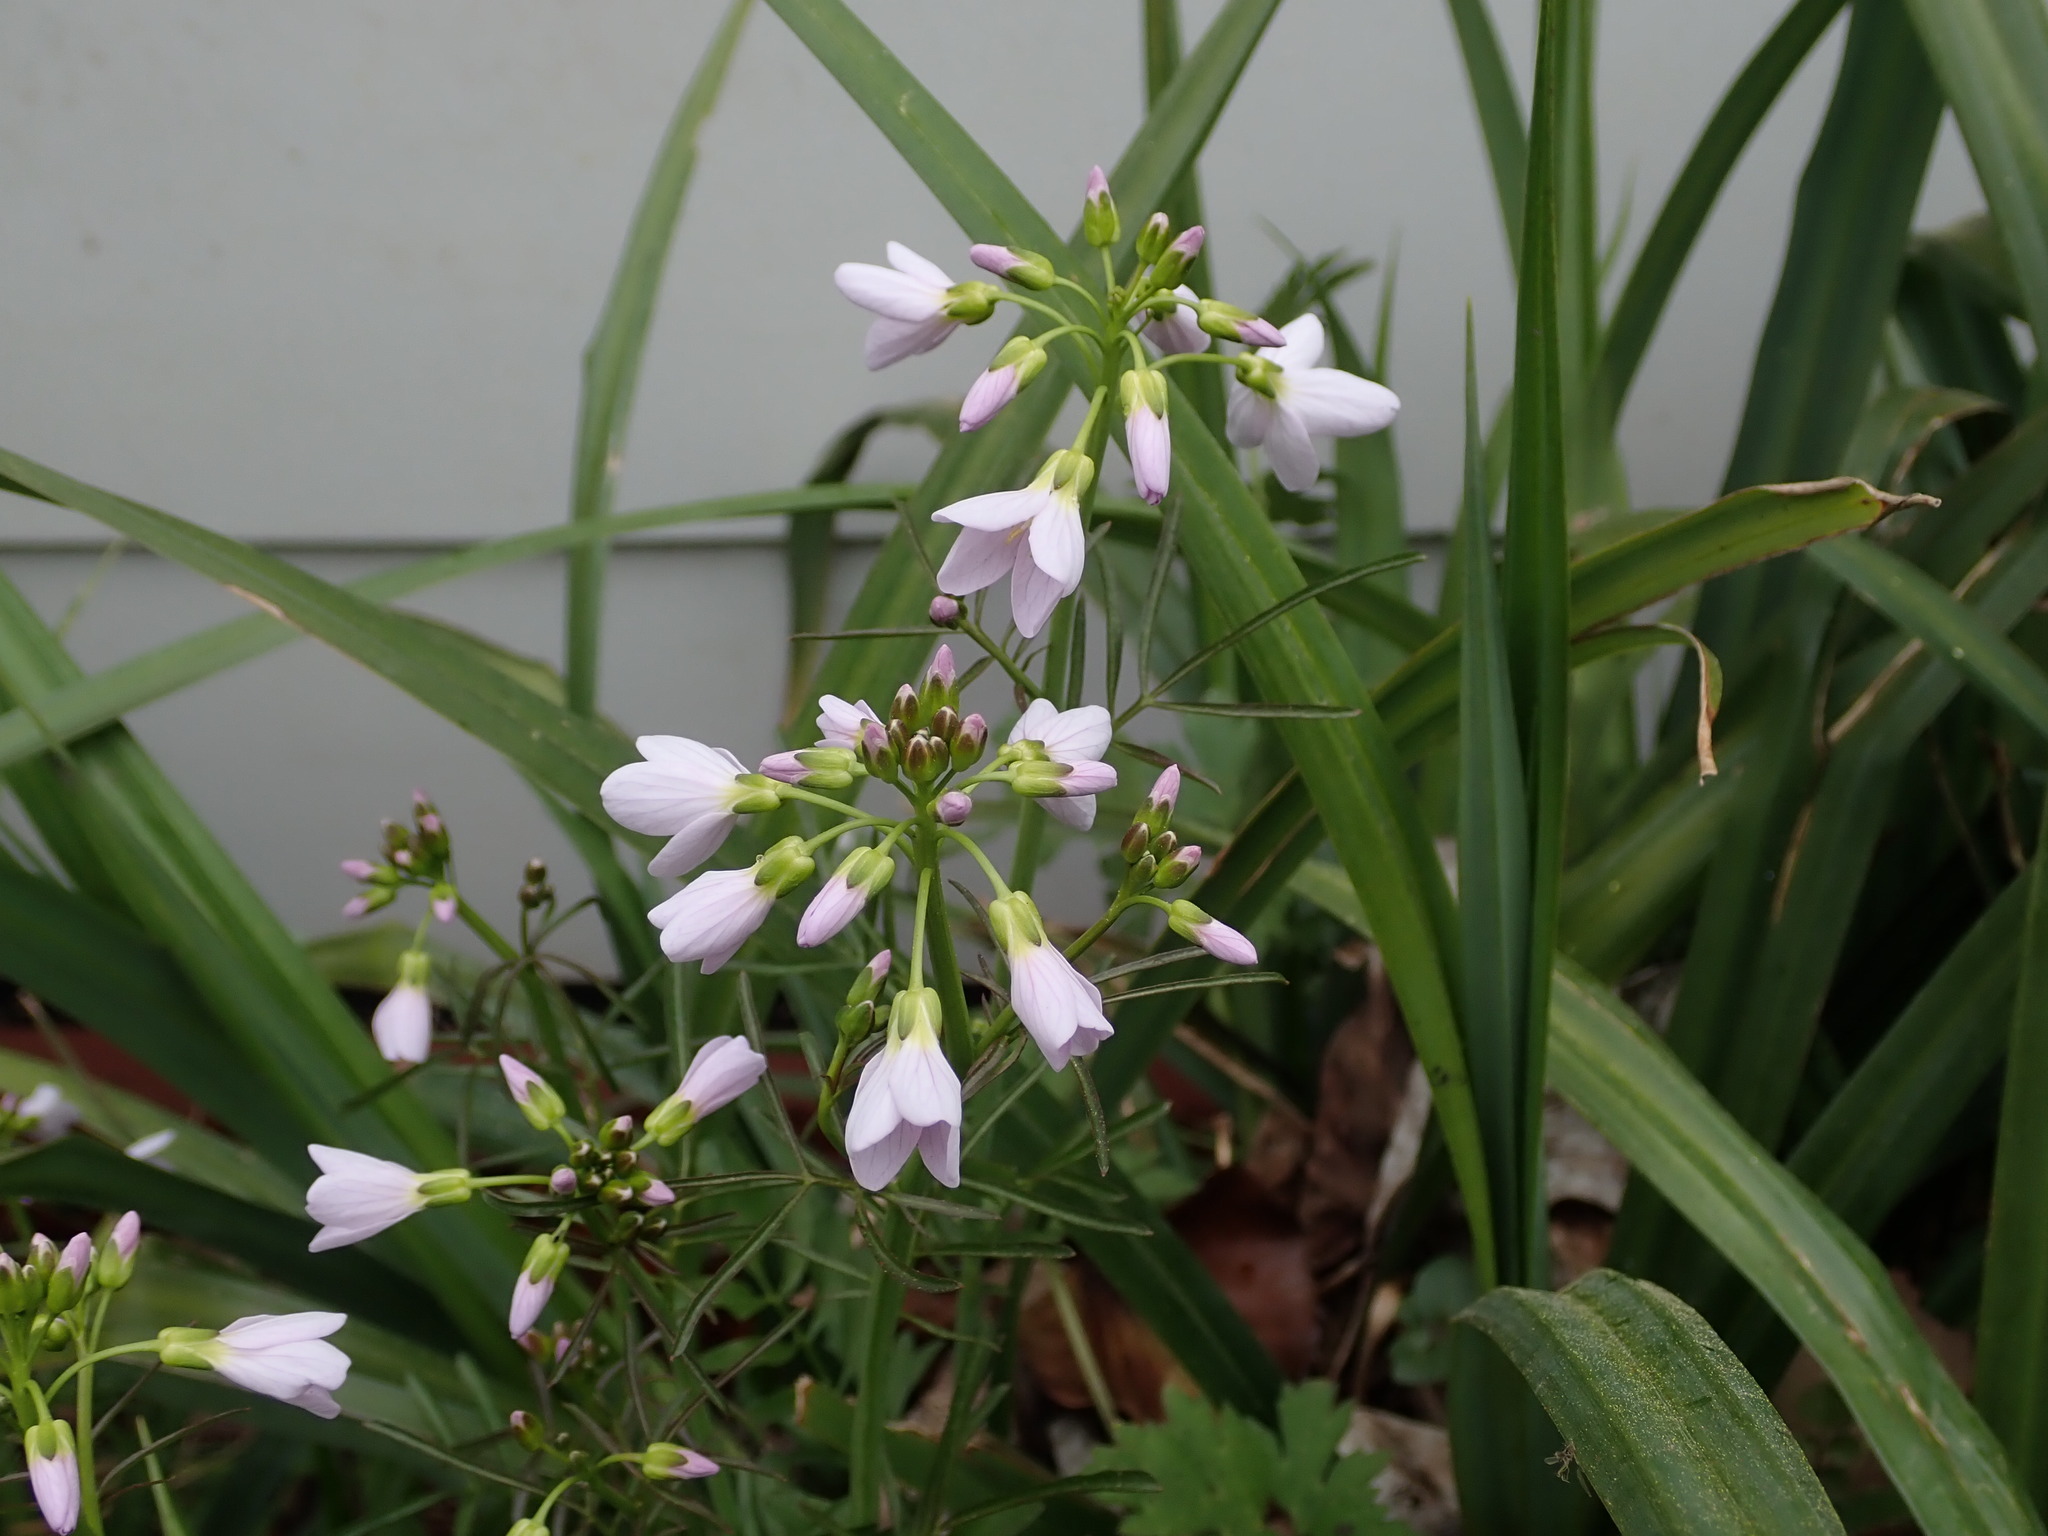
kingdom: Plantae
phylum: Tracheophyta
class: Magnoliopsida
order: Brassicales
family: Brassicaceae
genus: Cardamine
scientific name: Cardamine pratensis
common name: Cuckoo flower
